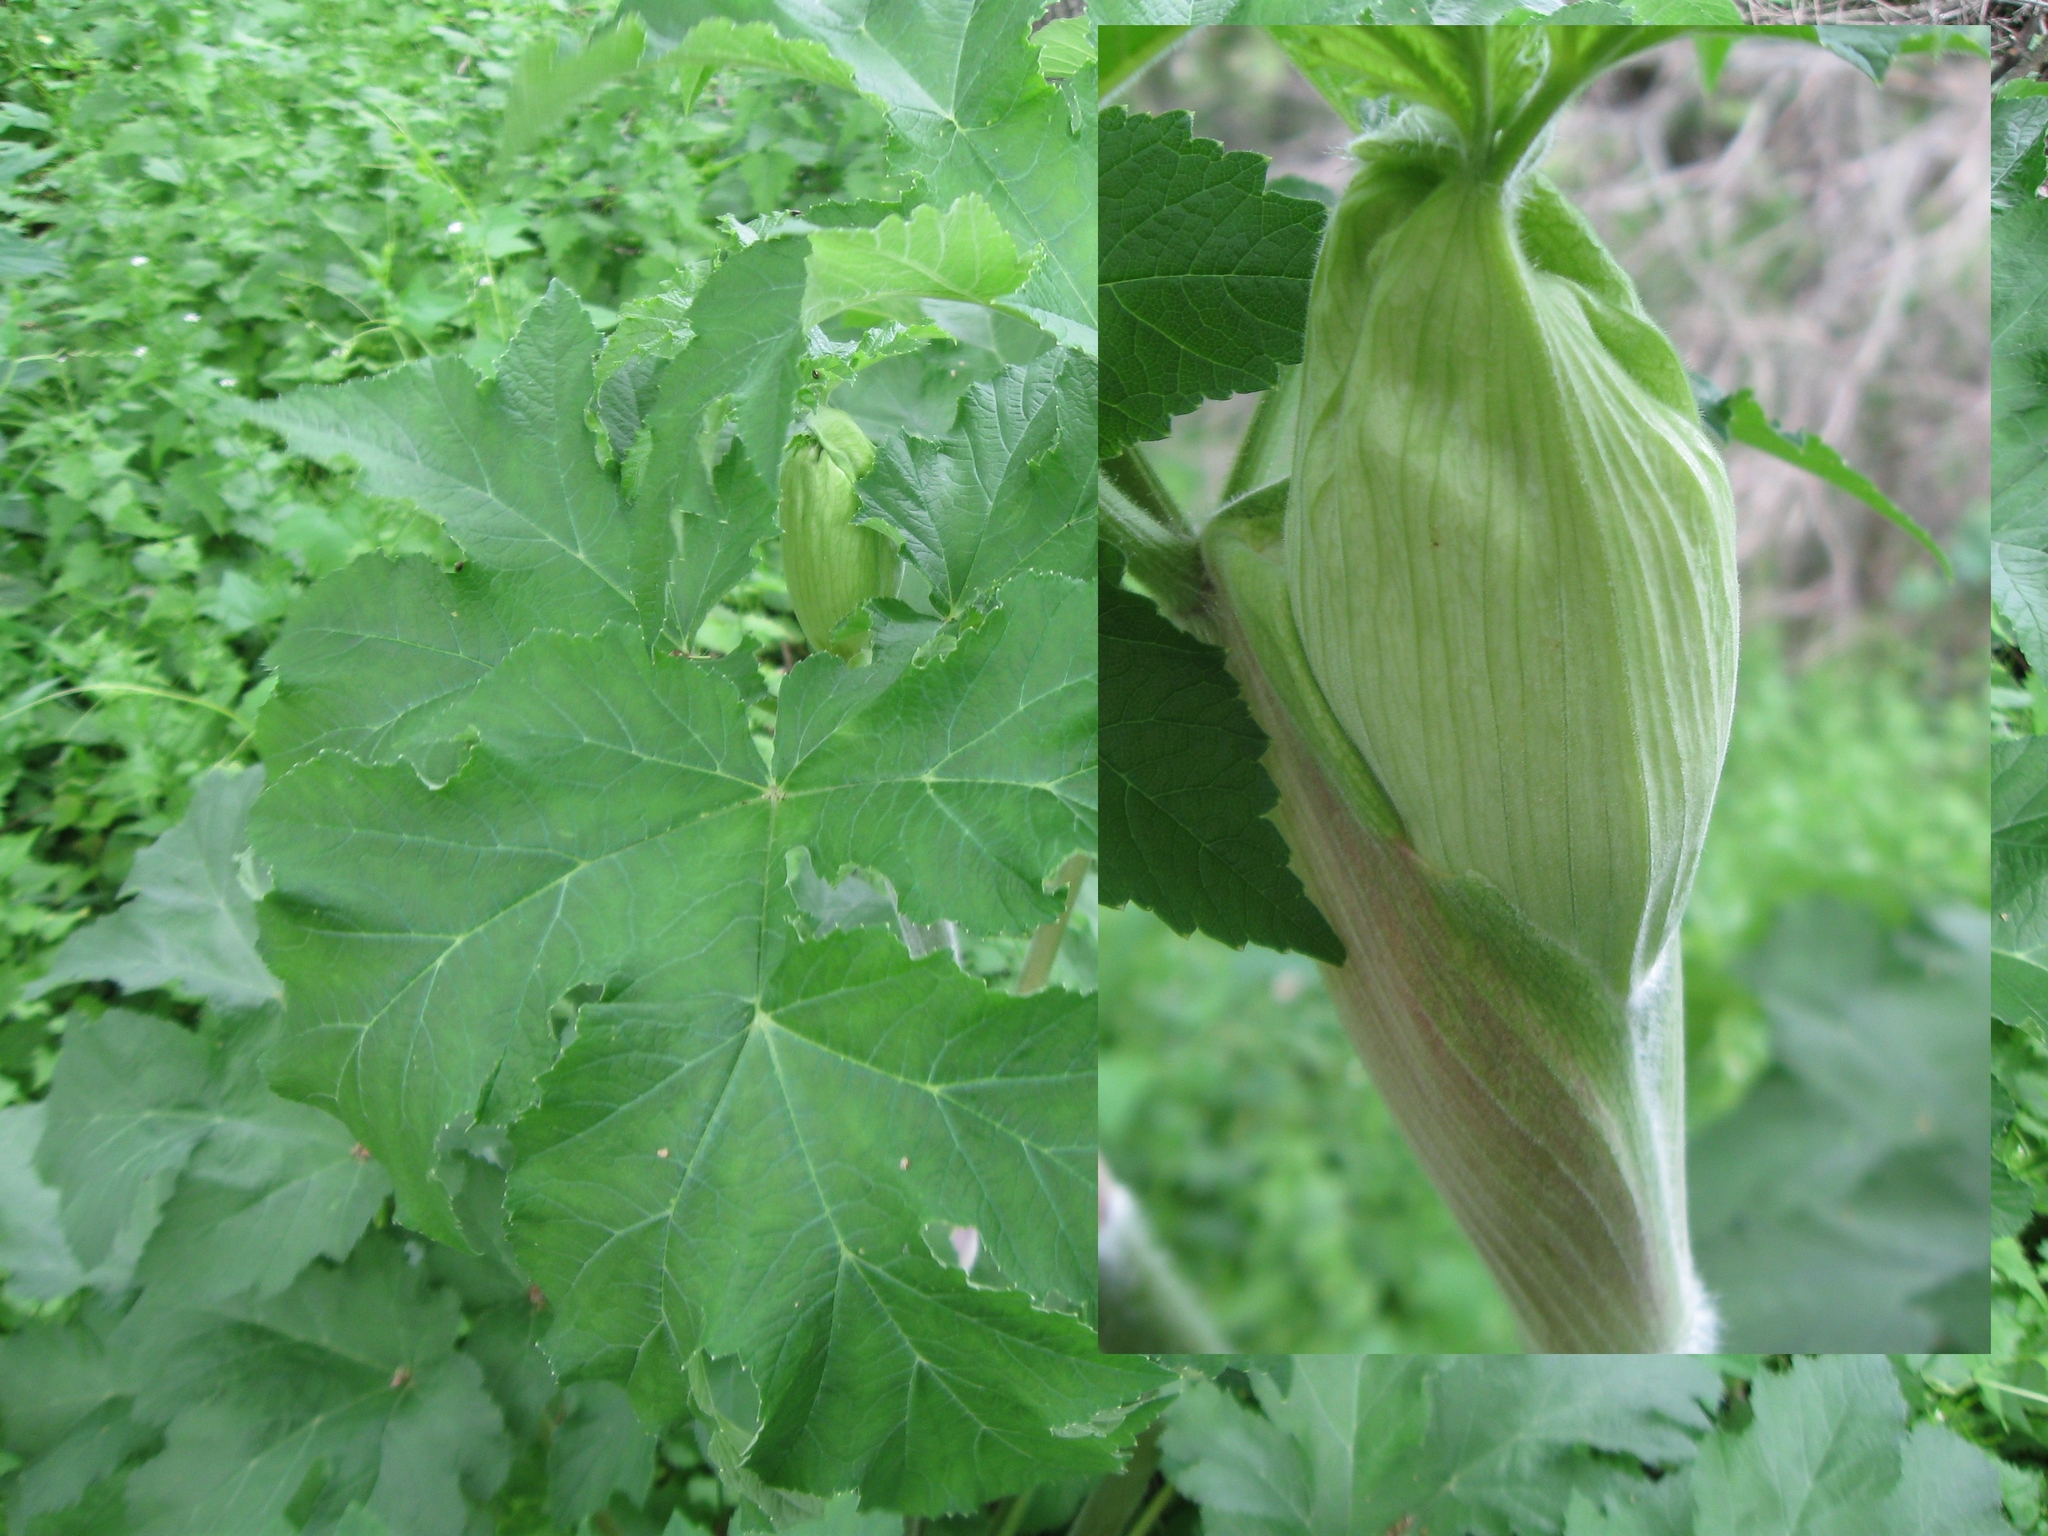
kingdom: Plantae
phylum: Tracheophyta
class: Magnoliopsida
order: Apiales
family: Apiaceae
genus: Heracleum
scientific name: Heracleum maximum
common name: American cow parsnip
